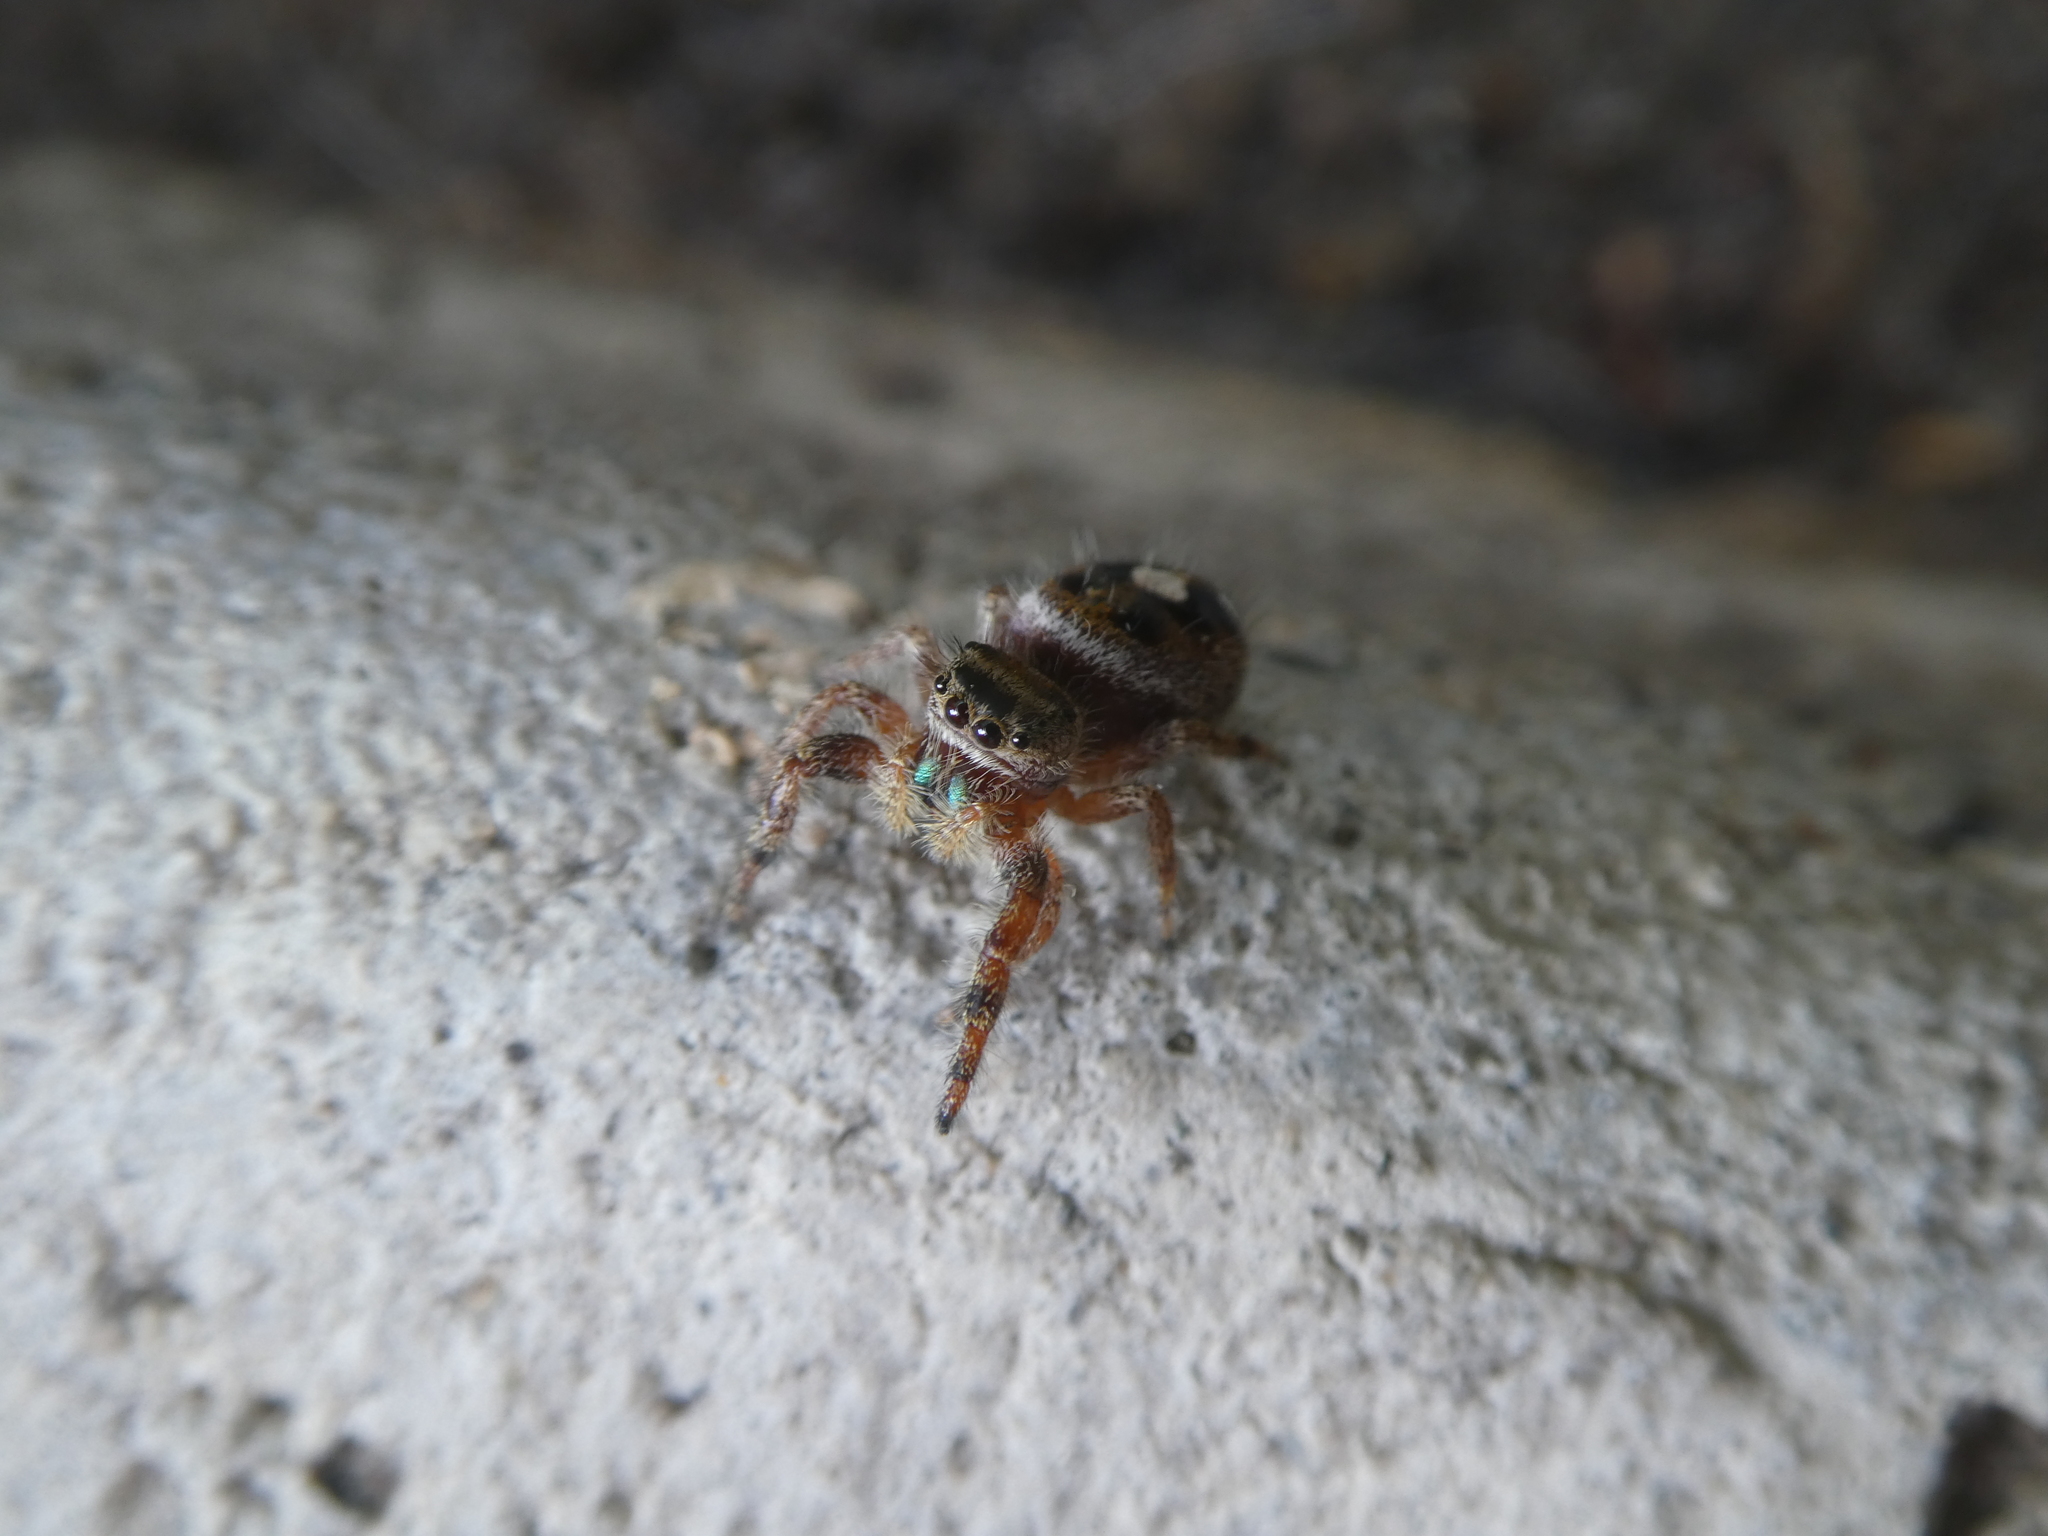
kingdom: Animalia
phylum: Arthropoda
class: Arachnida
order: Araneae
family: Salticidae
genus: Phidippus
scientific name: Phidippus audax
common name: Bold jumper
